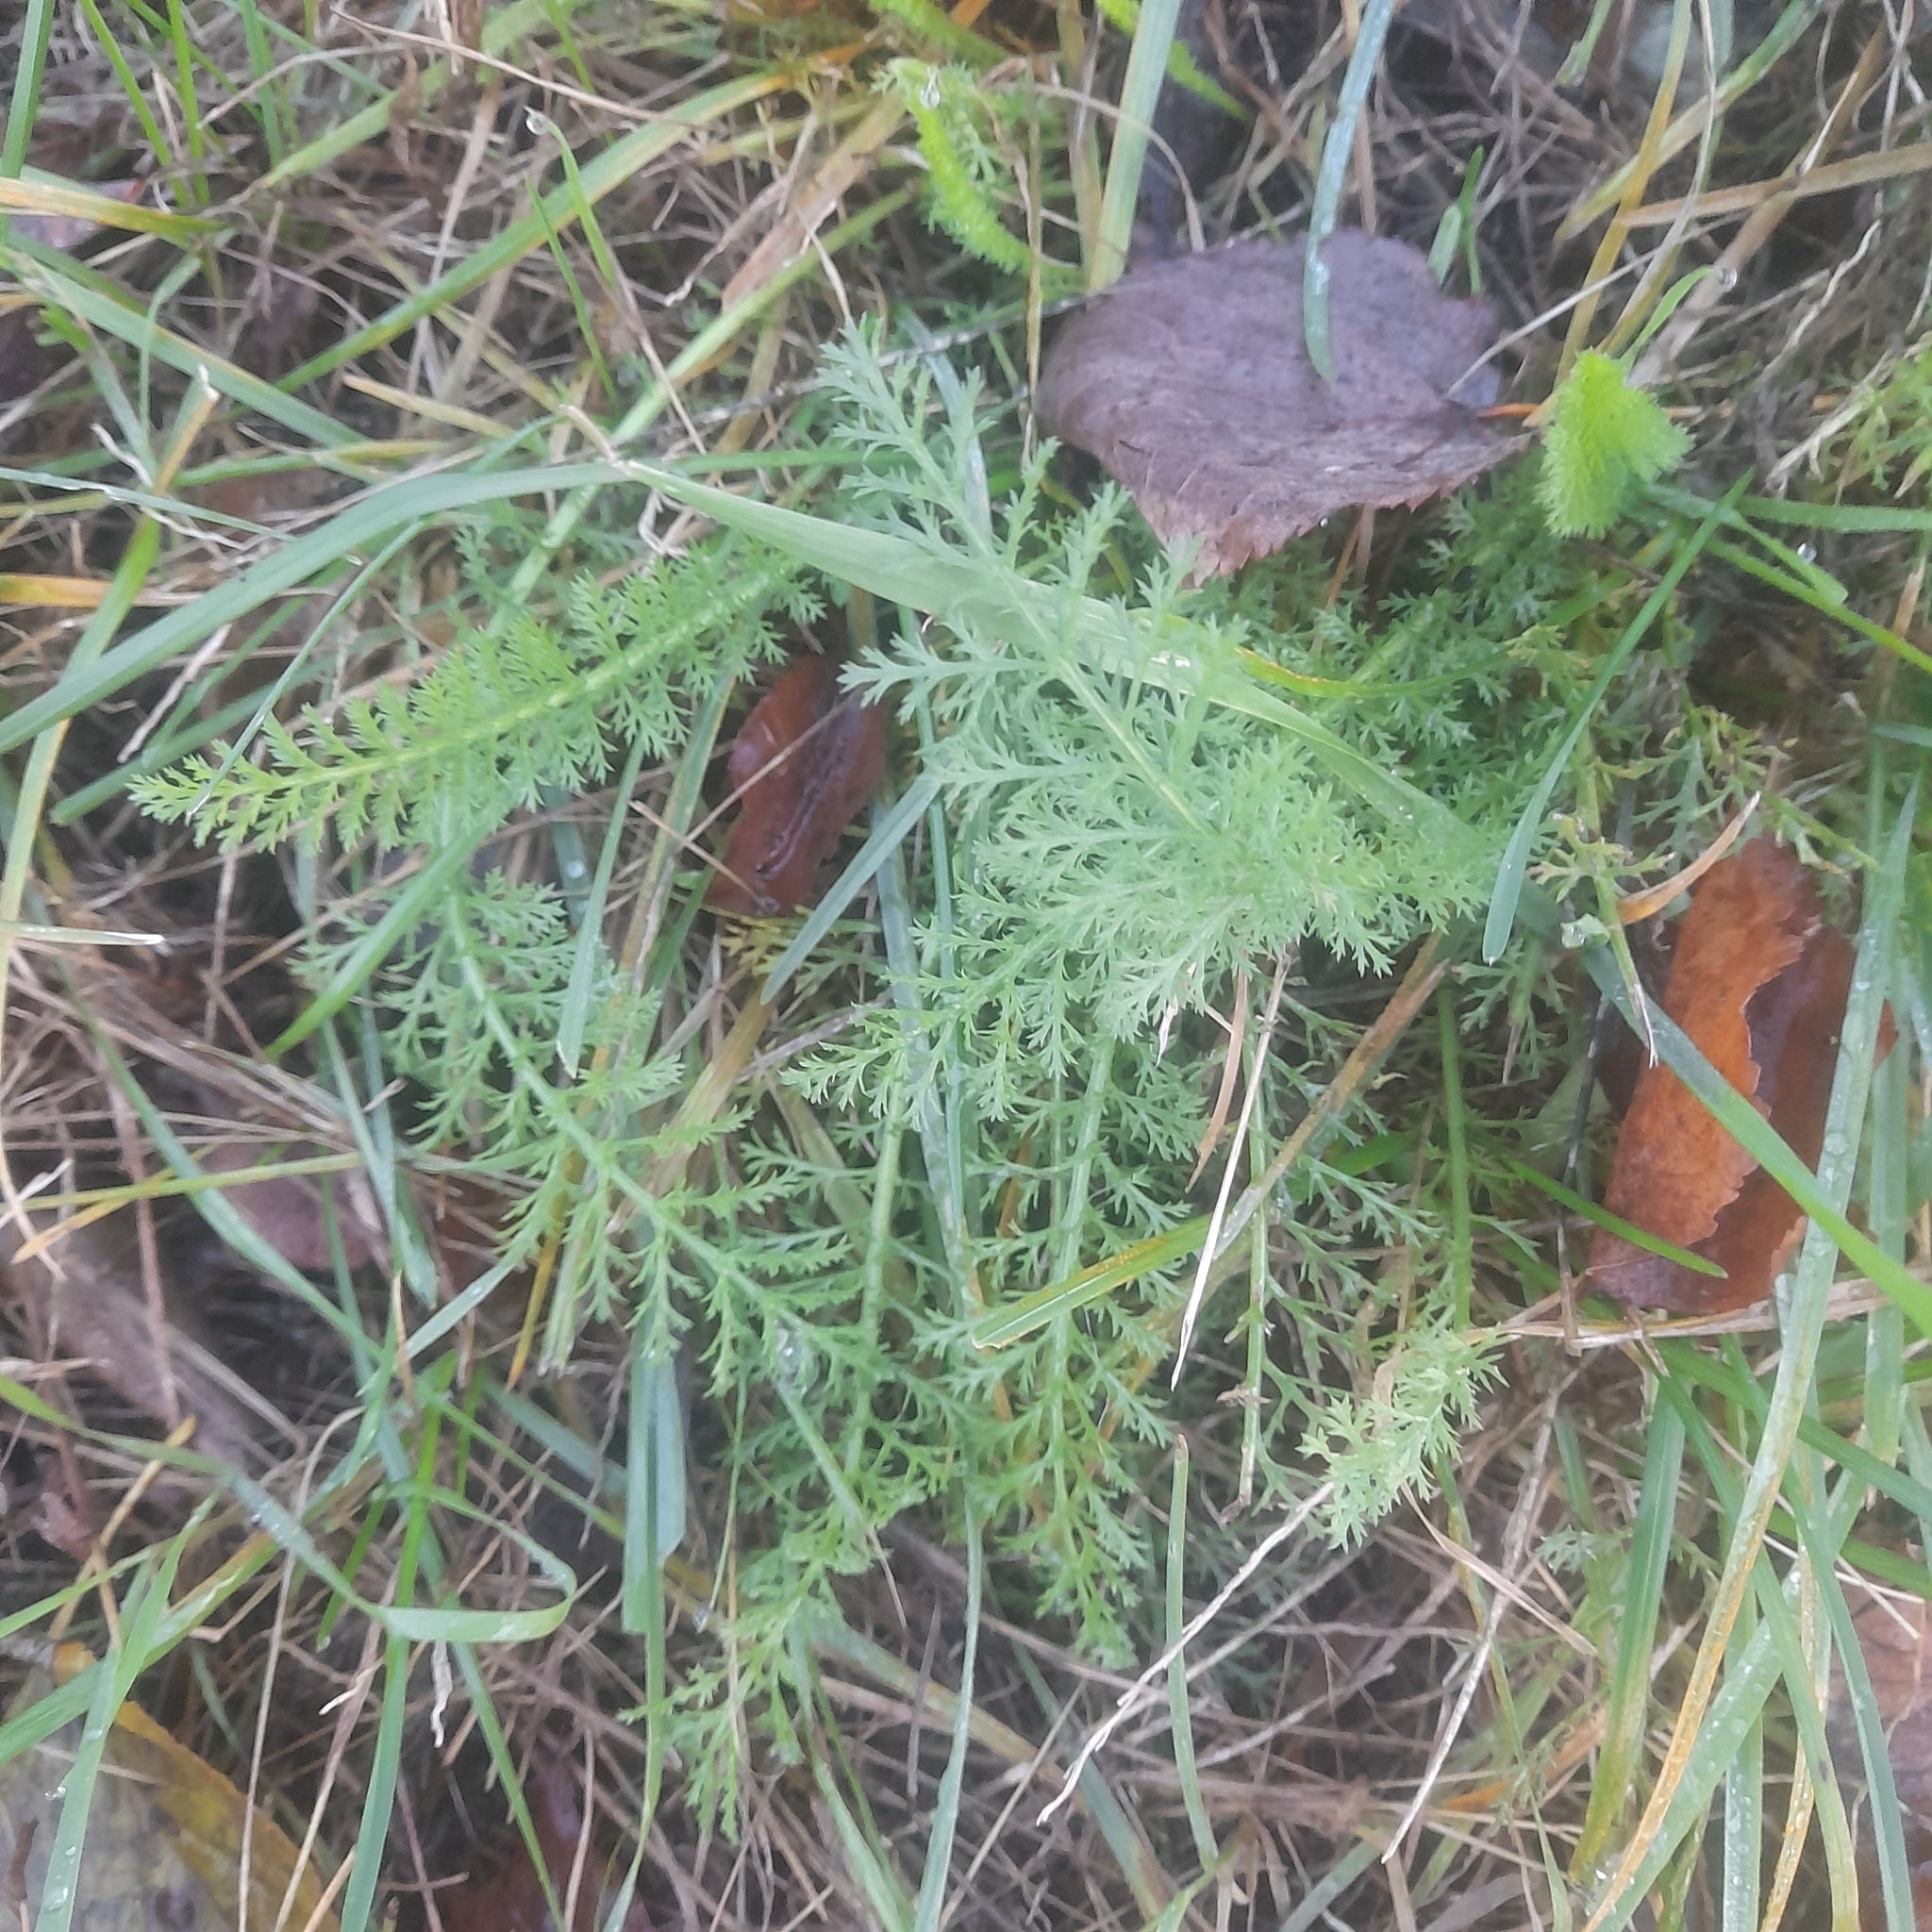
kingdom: Plantae
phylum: Tracheophyta
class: Magnoliopsida
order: Asterales
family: Asteraceae
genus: Achillea
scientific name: Achillea millefolium
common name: Yarrow
